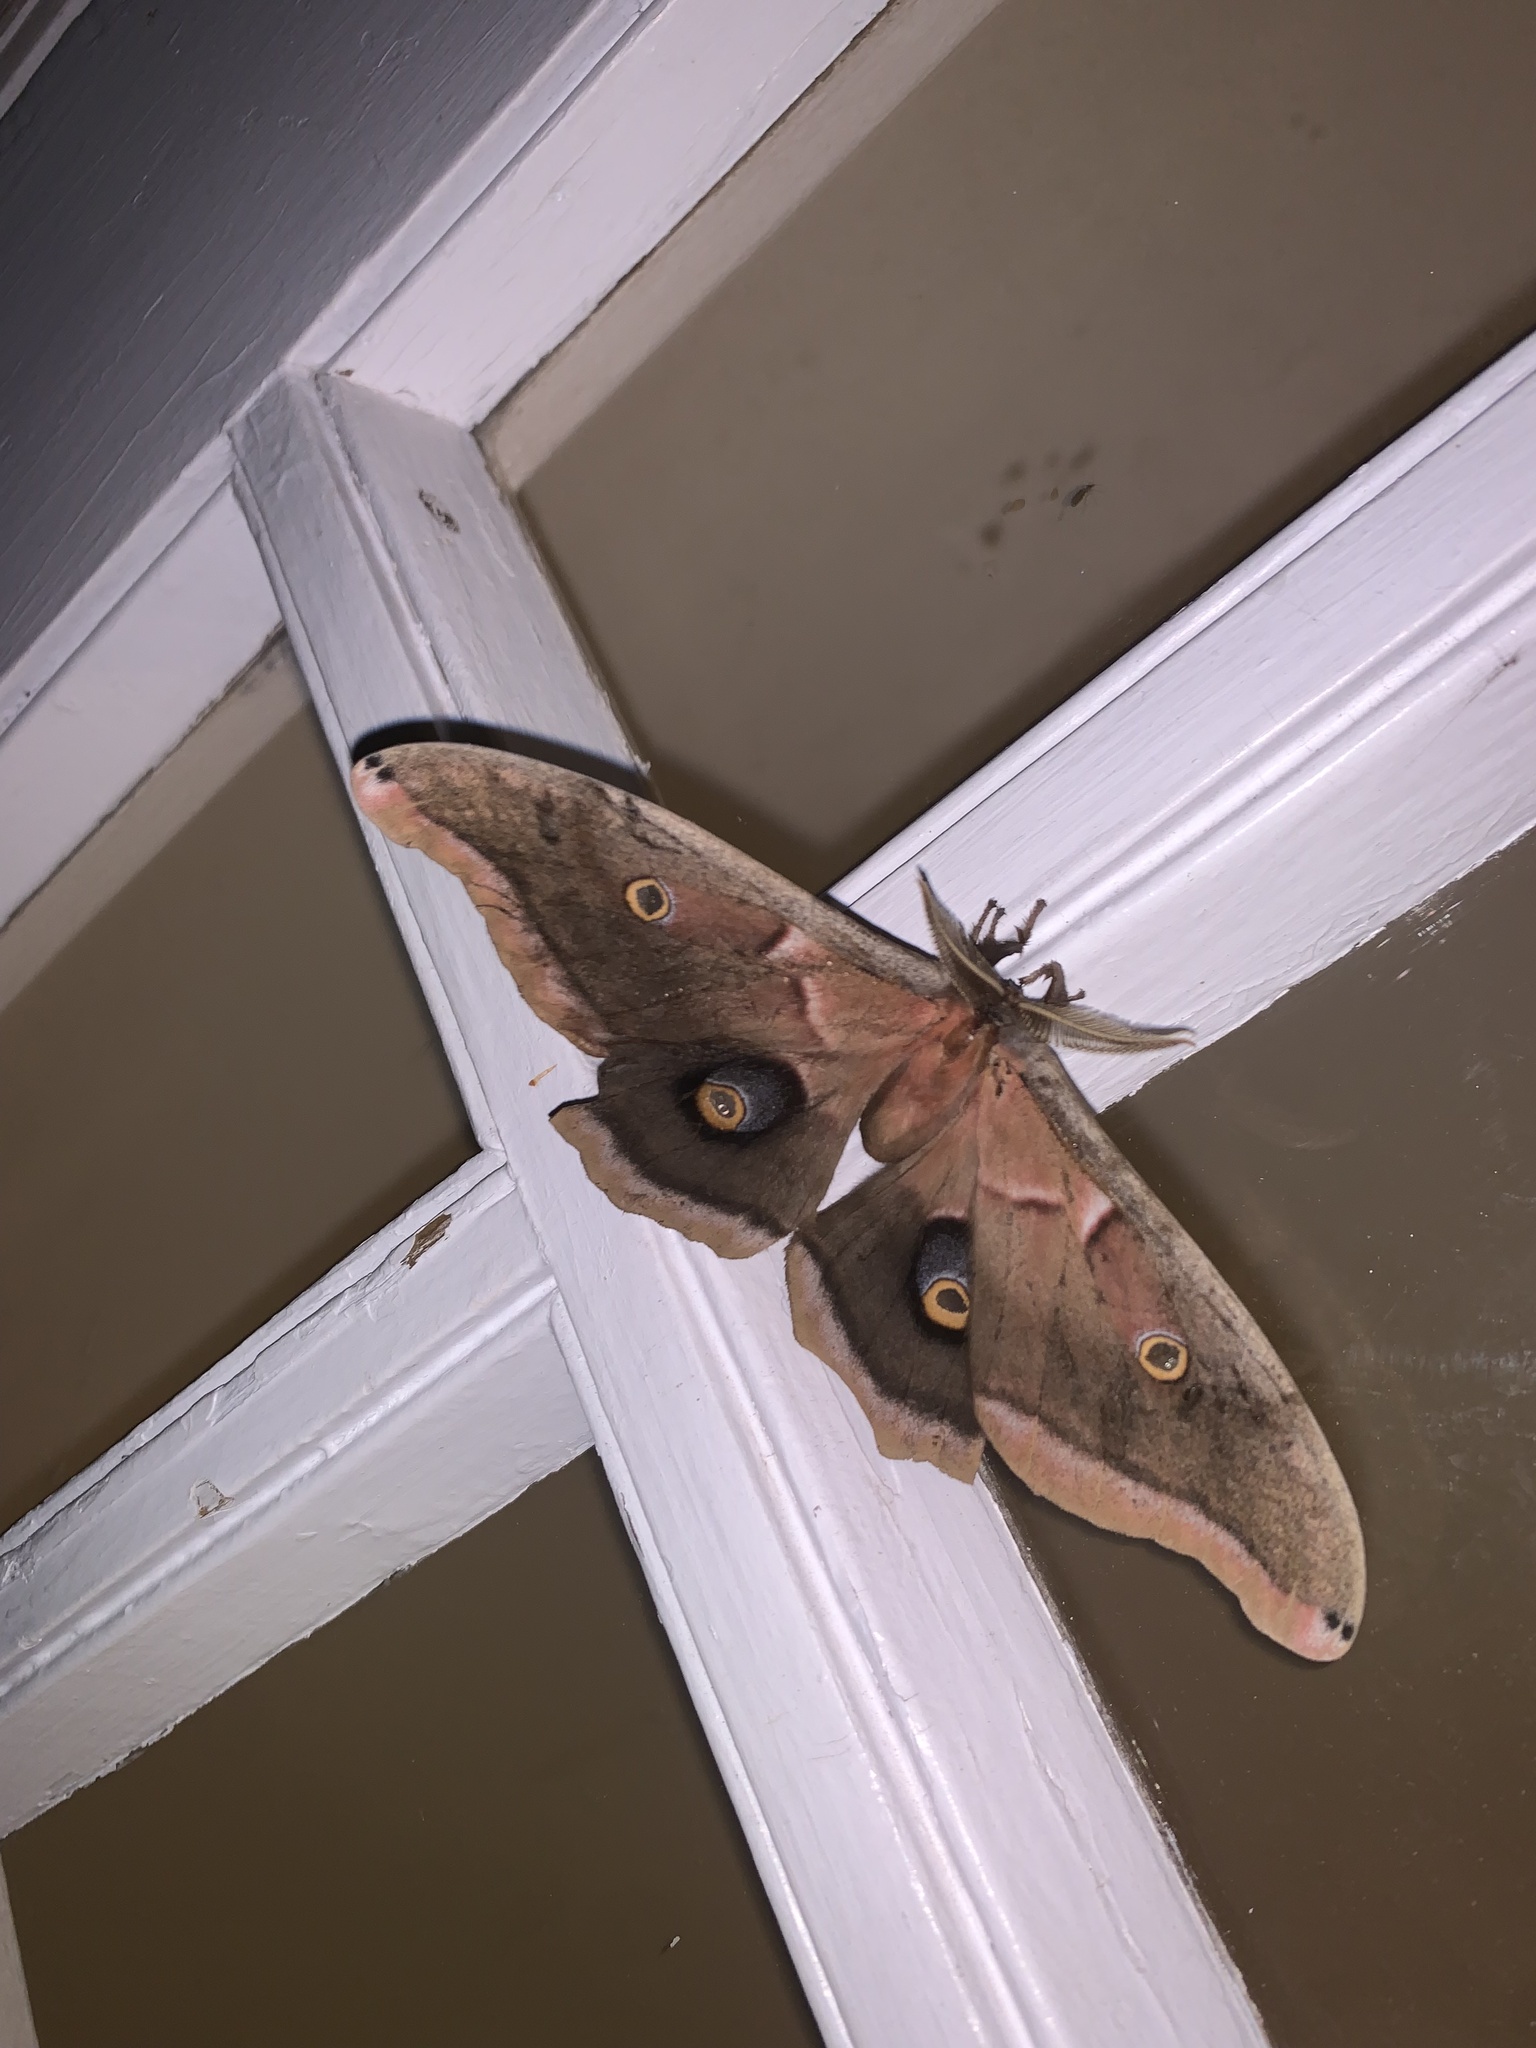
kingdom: Animalia
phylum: Arthropoda
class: Insecta
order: Lepidoptera
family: Saturniidae
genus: Antheraea
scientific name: Antheraea polyphemus
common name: Polyphemus moth
